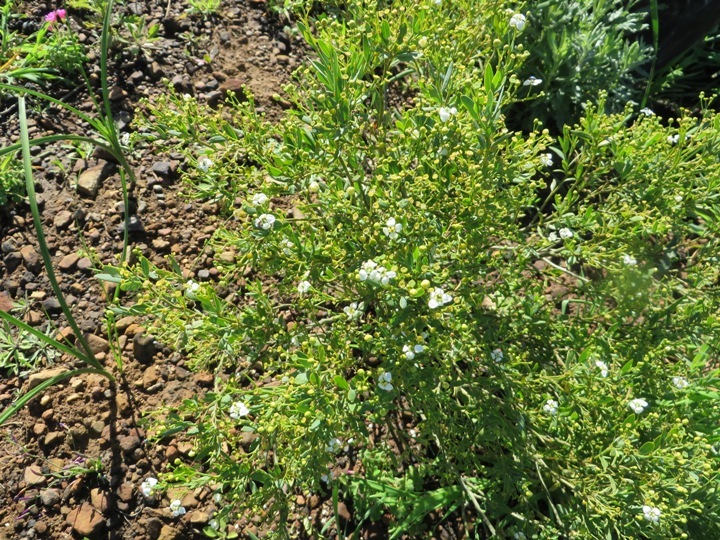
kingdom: Plantae
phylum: Tracheophyta
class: Magnoliopsida
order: Solanales
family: Montiniaceae
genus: Montinia
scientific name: Montinia caryophyllacea
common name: Wild clove-bush
